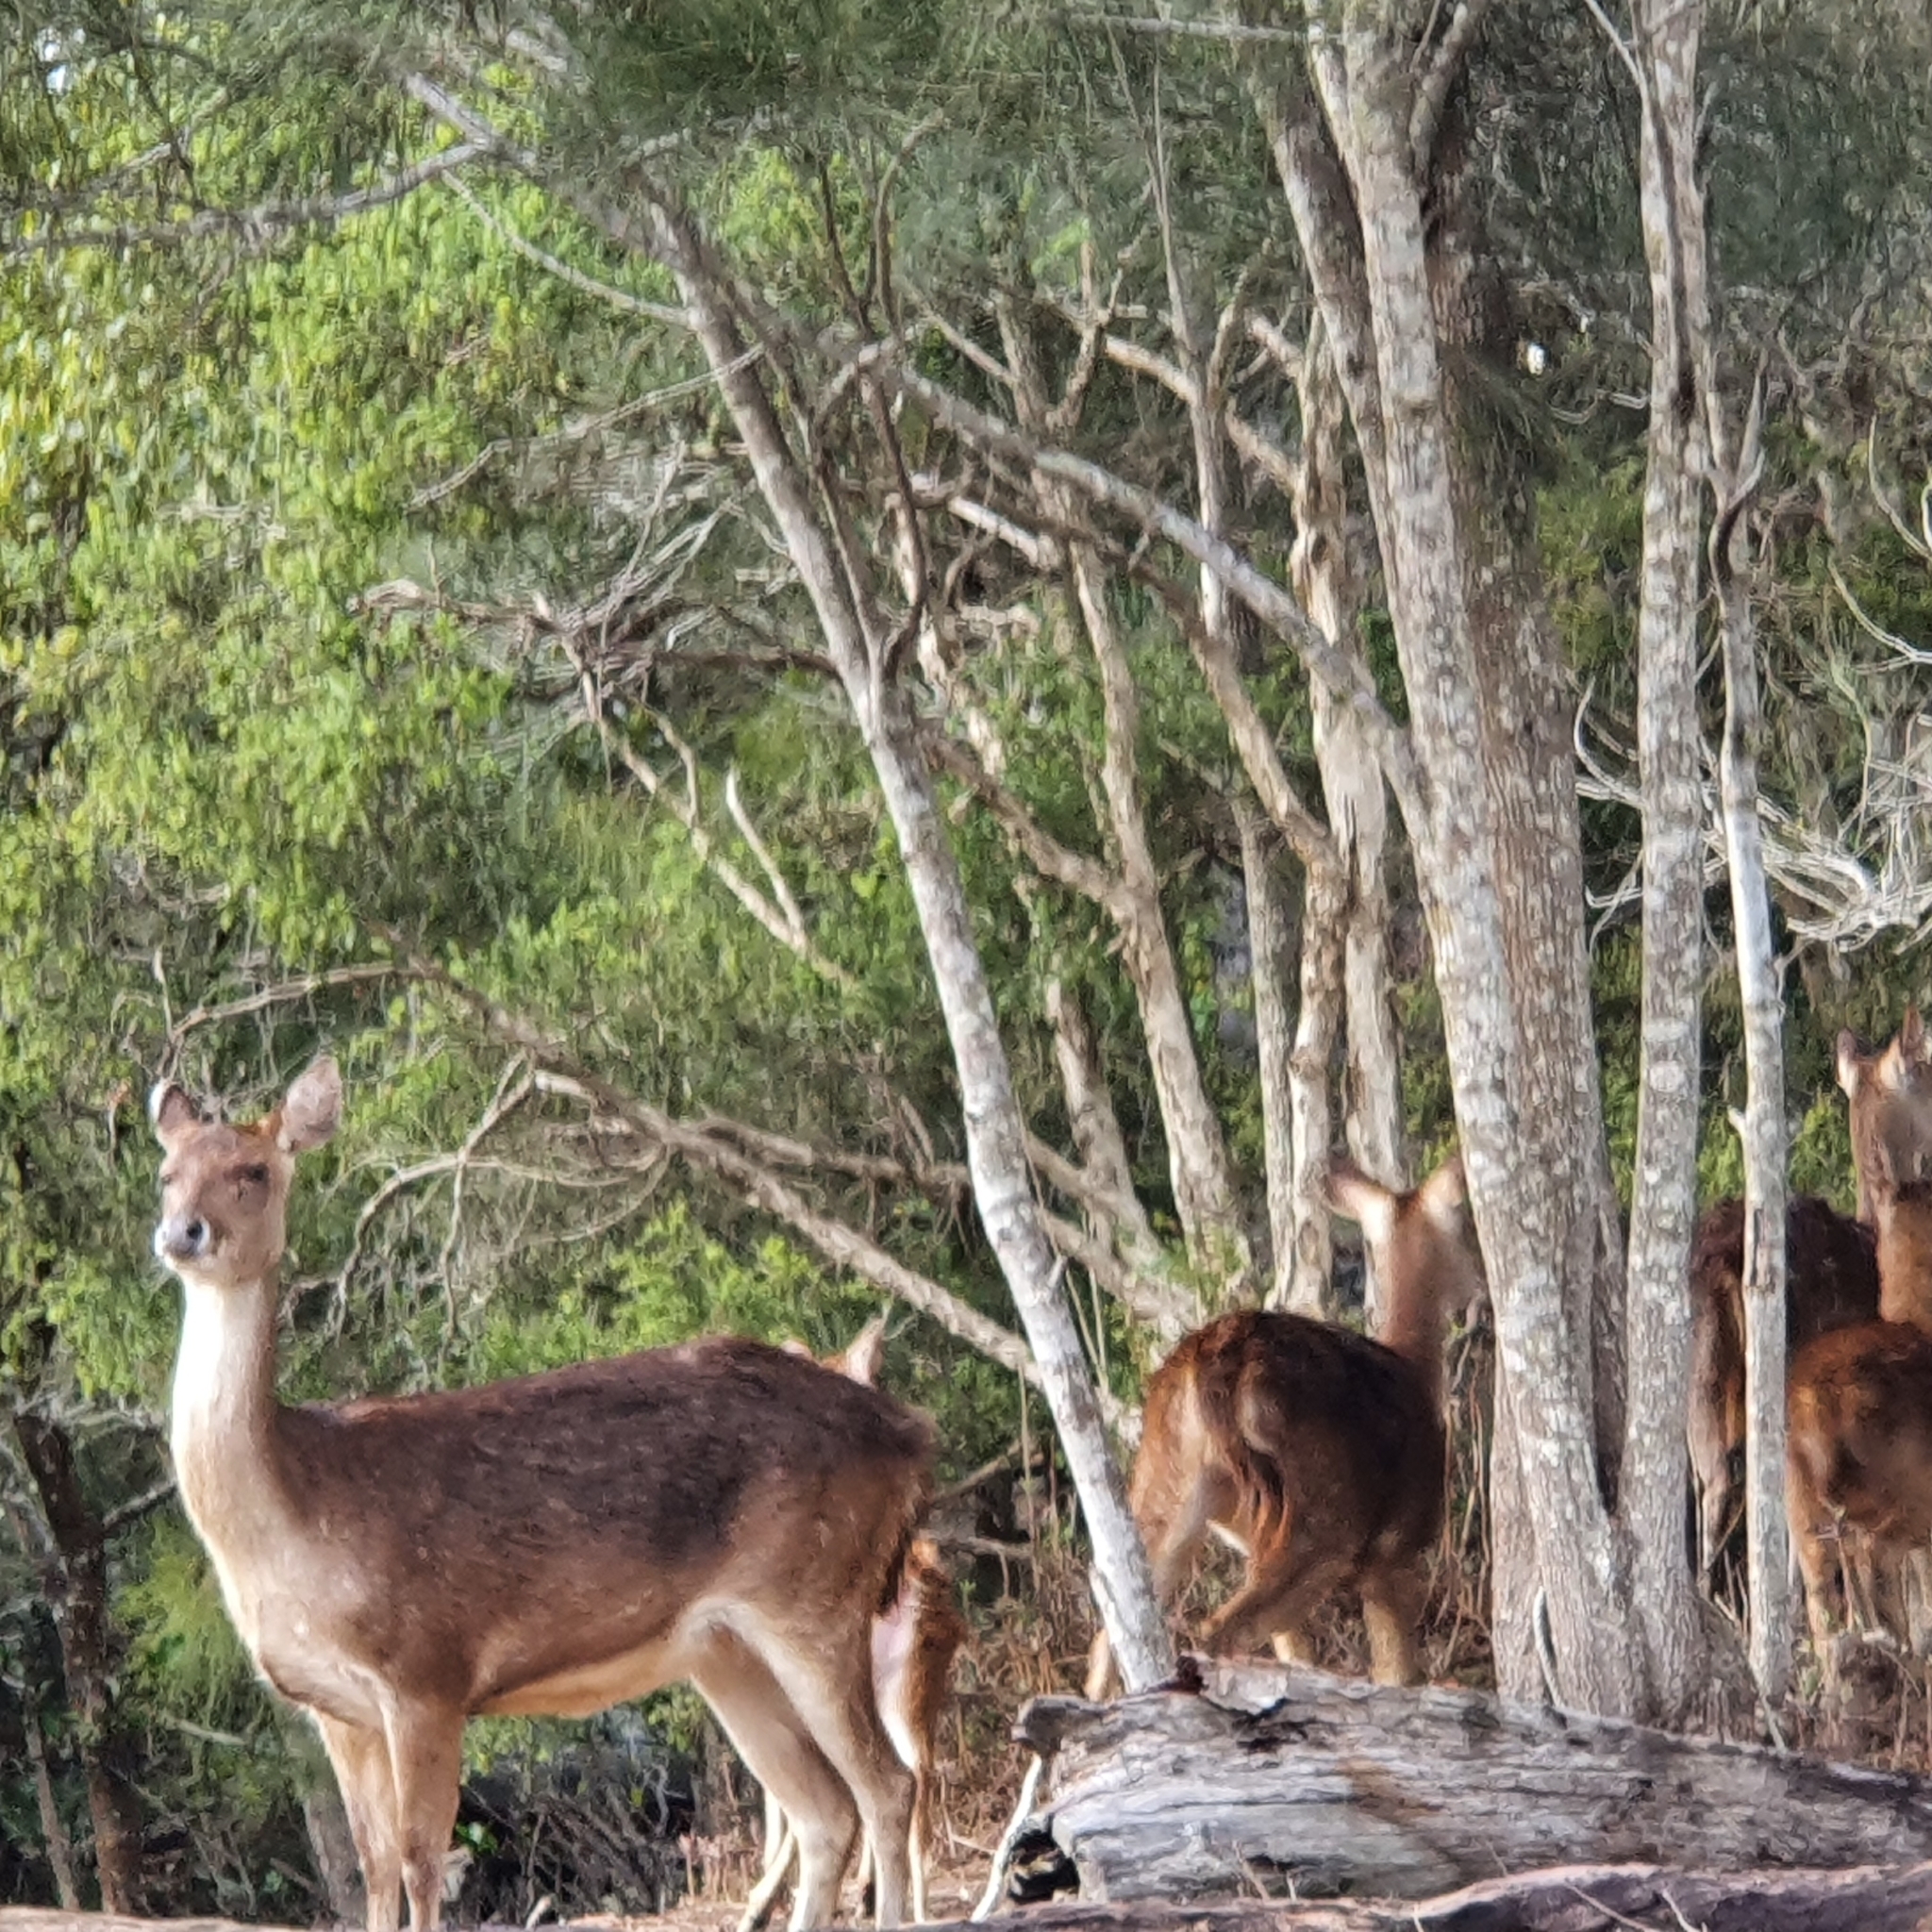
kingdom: Animalia
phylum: Chordata
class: Mammalia
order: Artiodactyla
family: Cervidae
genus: Rusa
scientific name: Rusa timorensis
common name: Javan rusa
